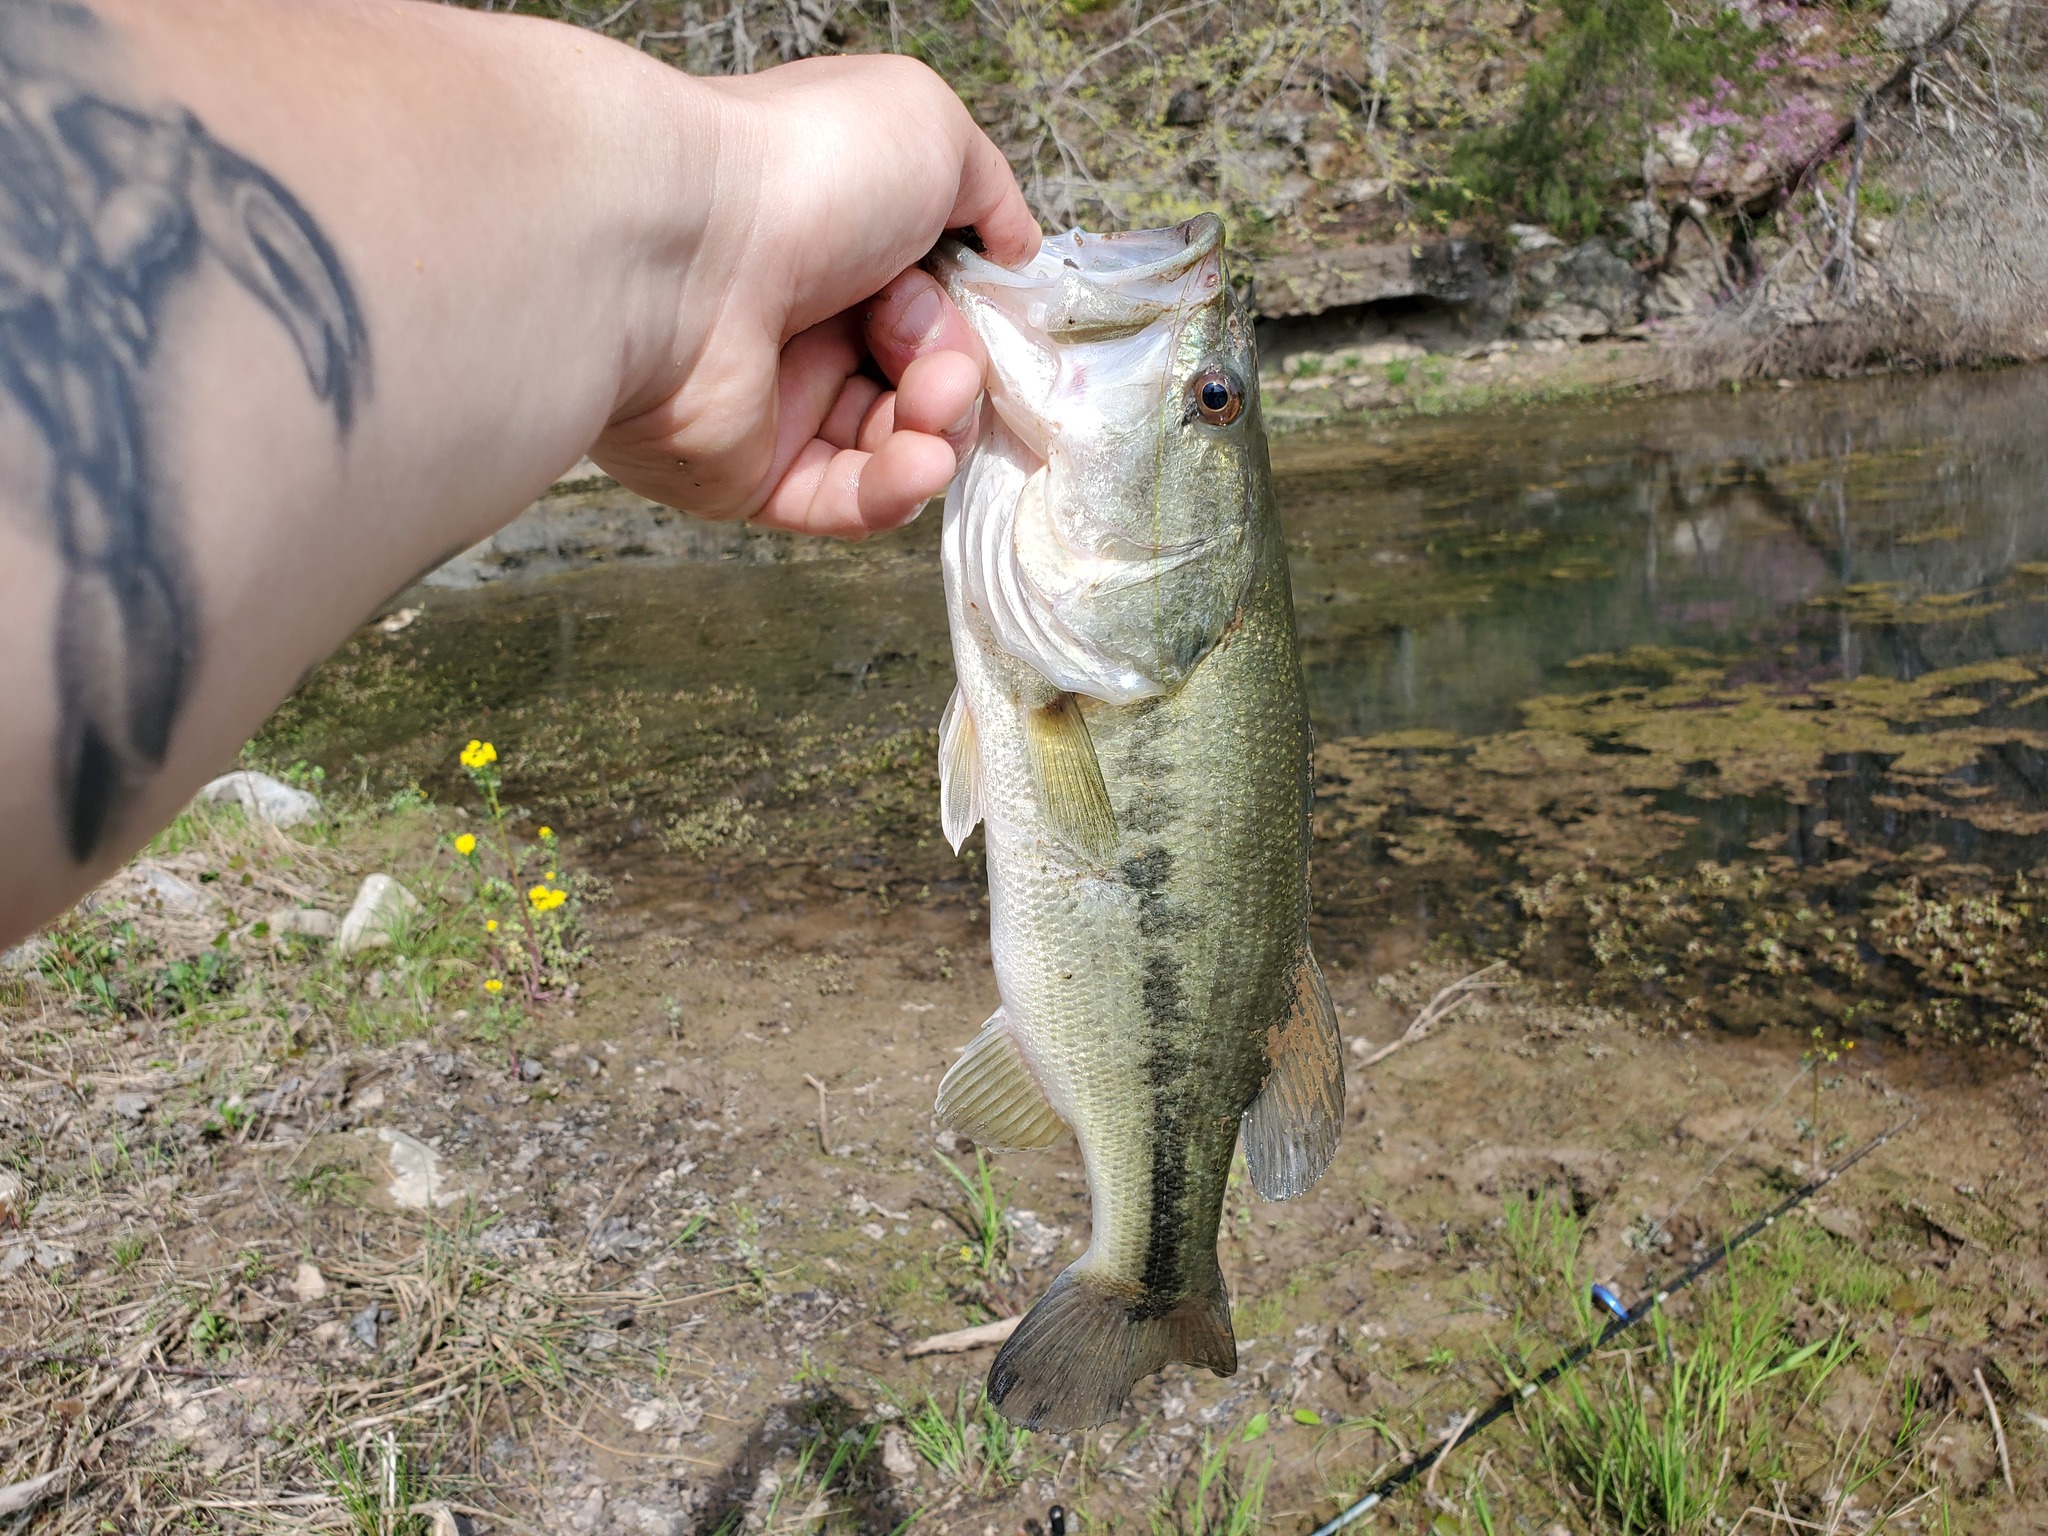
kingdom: Animalia
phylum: Chordata
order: Perciformes
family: Centrarchidae
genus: Micropterus
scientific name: Micropterus
